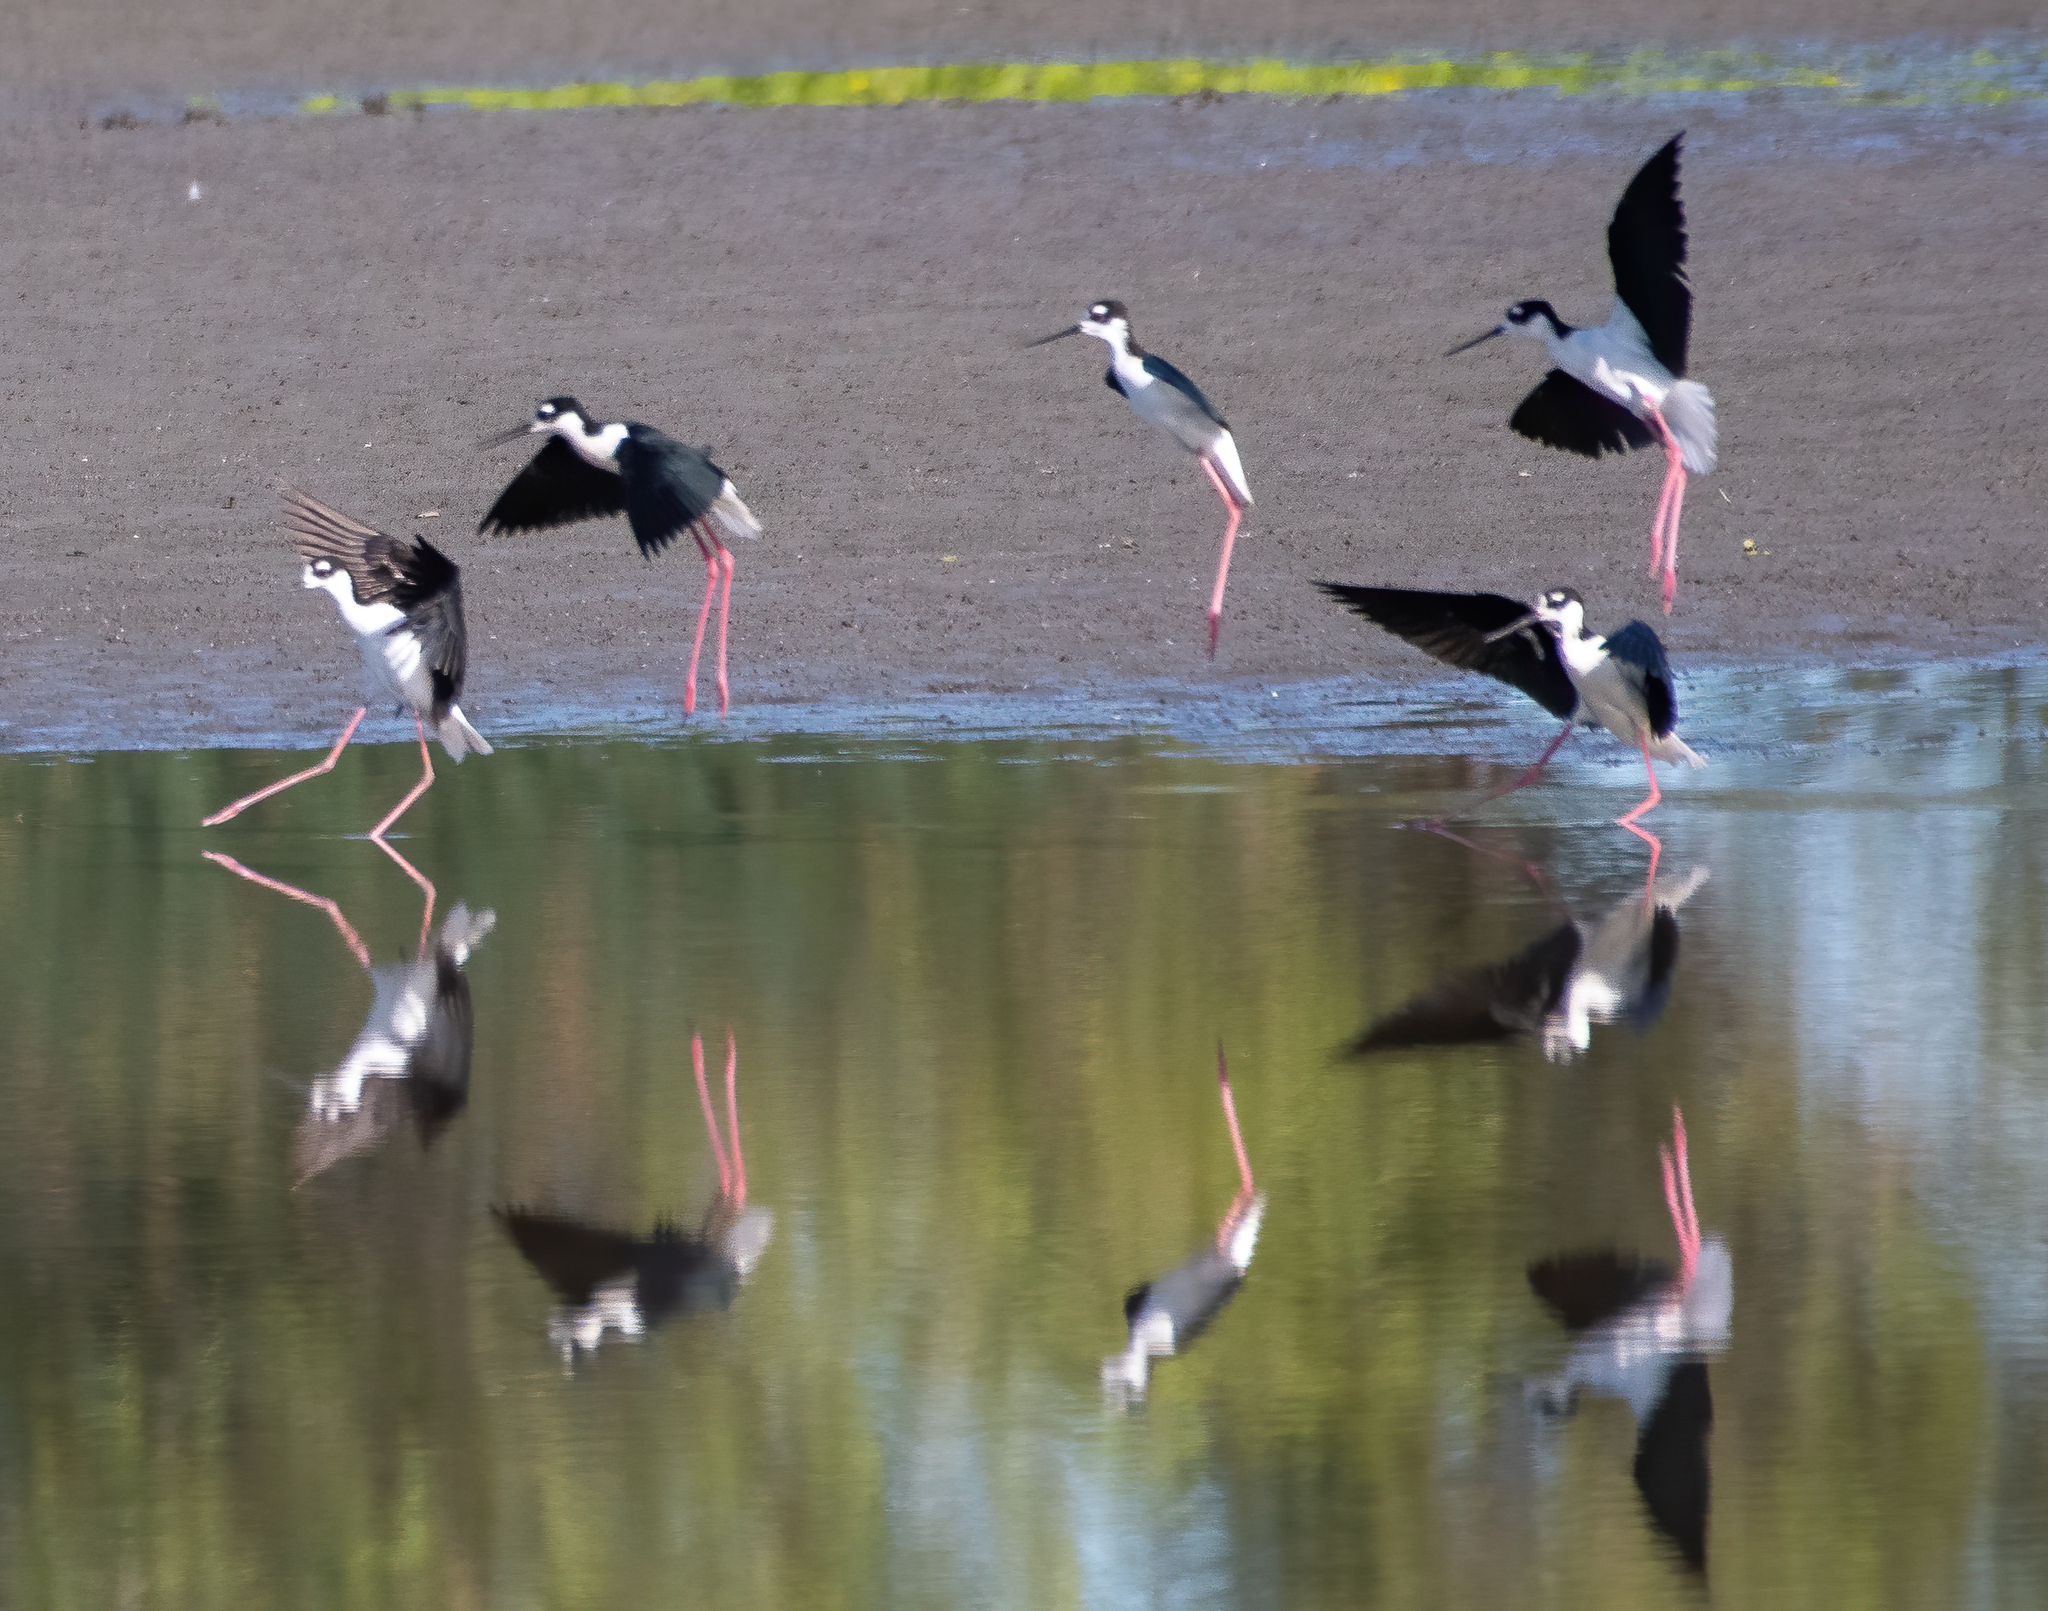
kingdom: Animalia
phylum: Chordata
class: Aves
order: Charadriiformes
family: Recurvirostridae
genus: Himantopus
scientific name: Himantopus mexicanus
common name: Black-necked stilt
